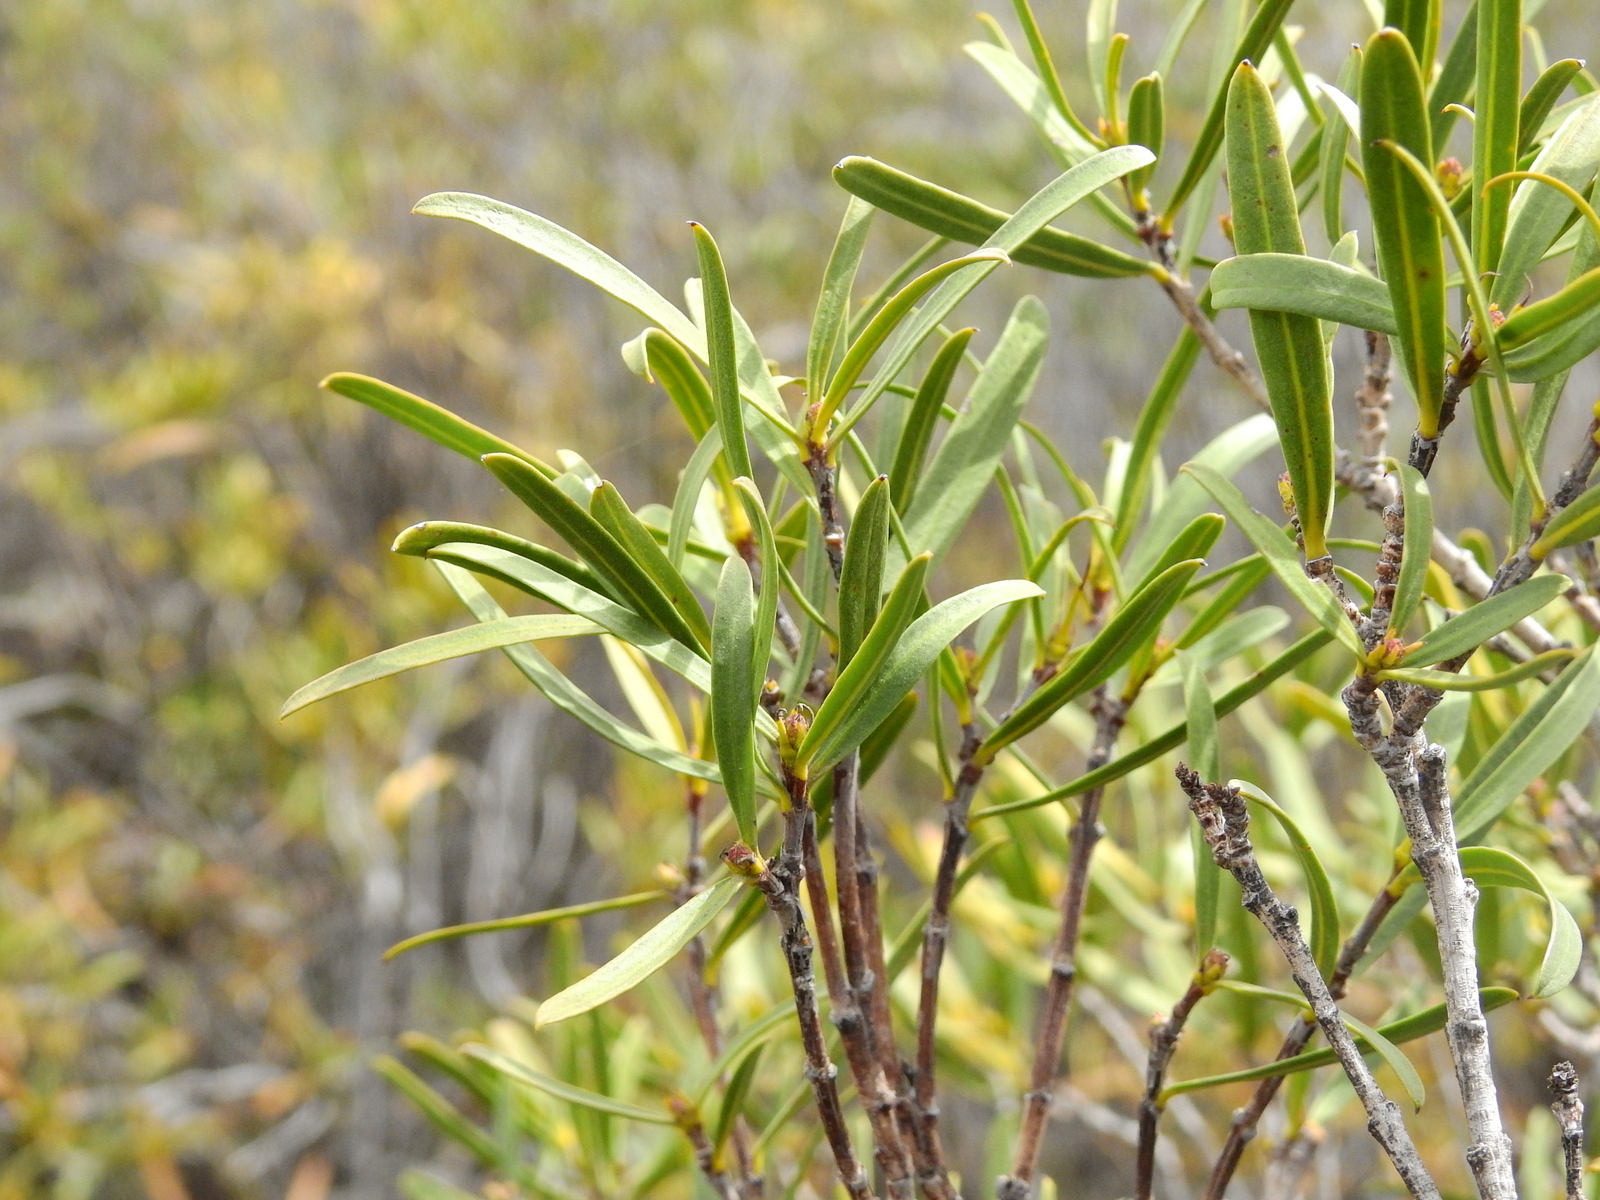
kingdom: Plantae
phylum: Tracheophyta
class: Magnoliopsida
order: Malpighiales
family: Euphorbiaceae
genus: Colliguaja
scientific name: Colliguaja integerrima
